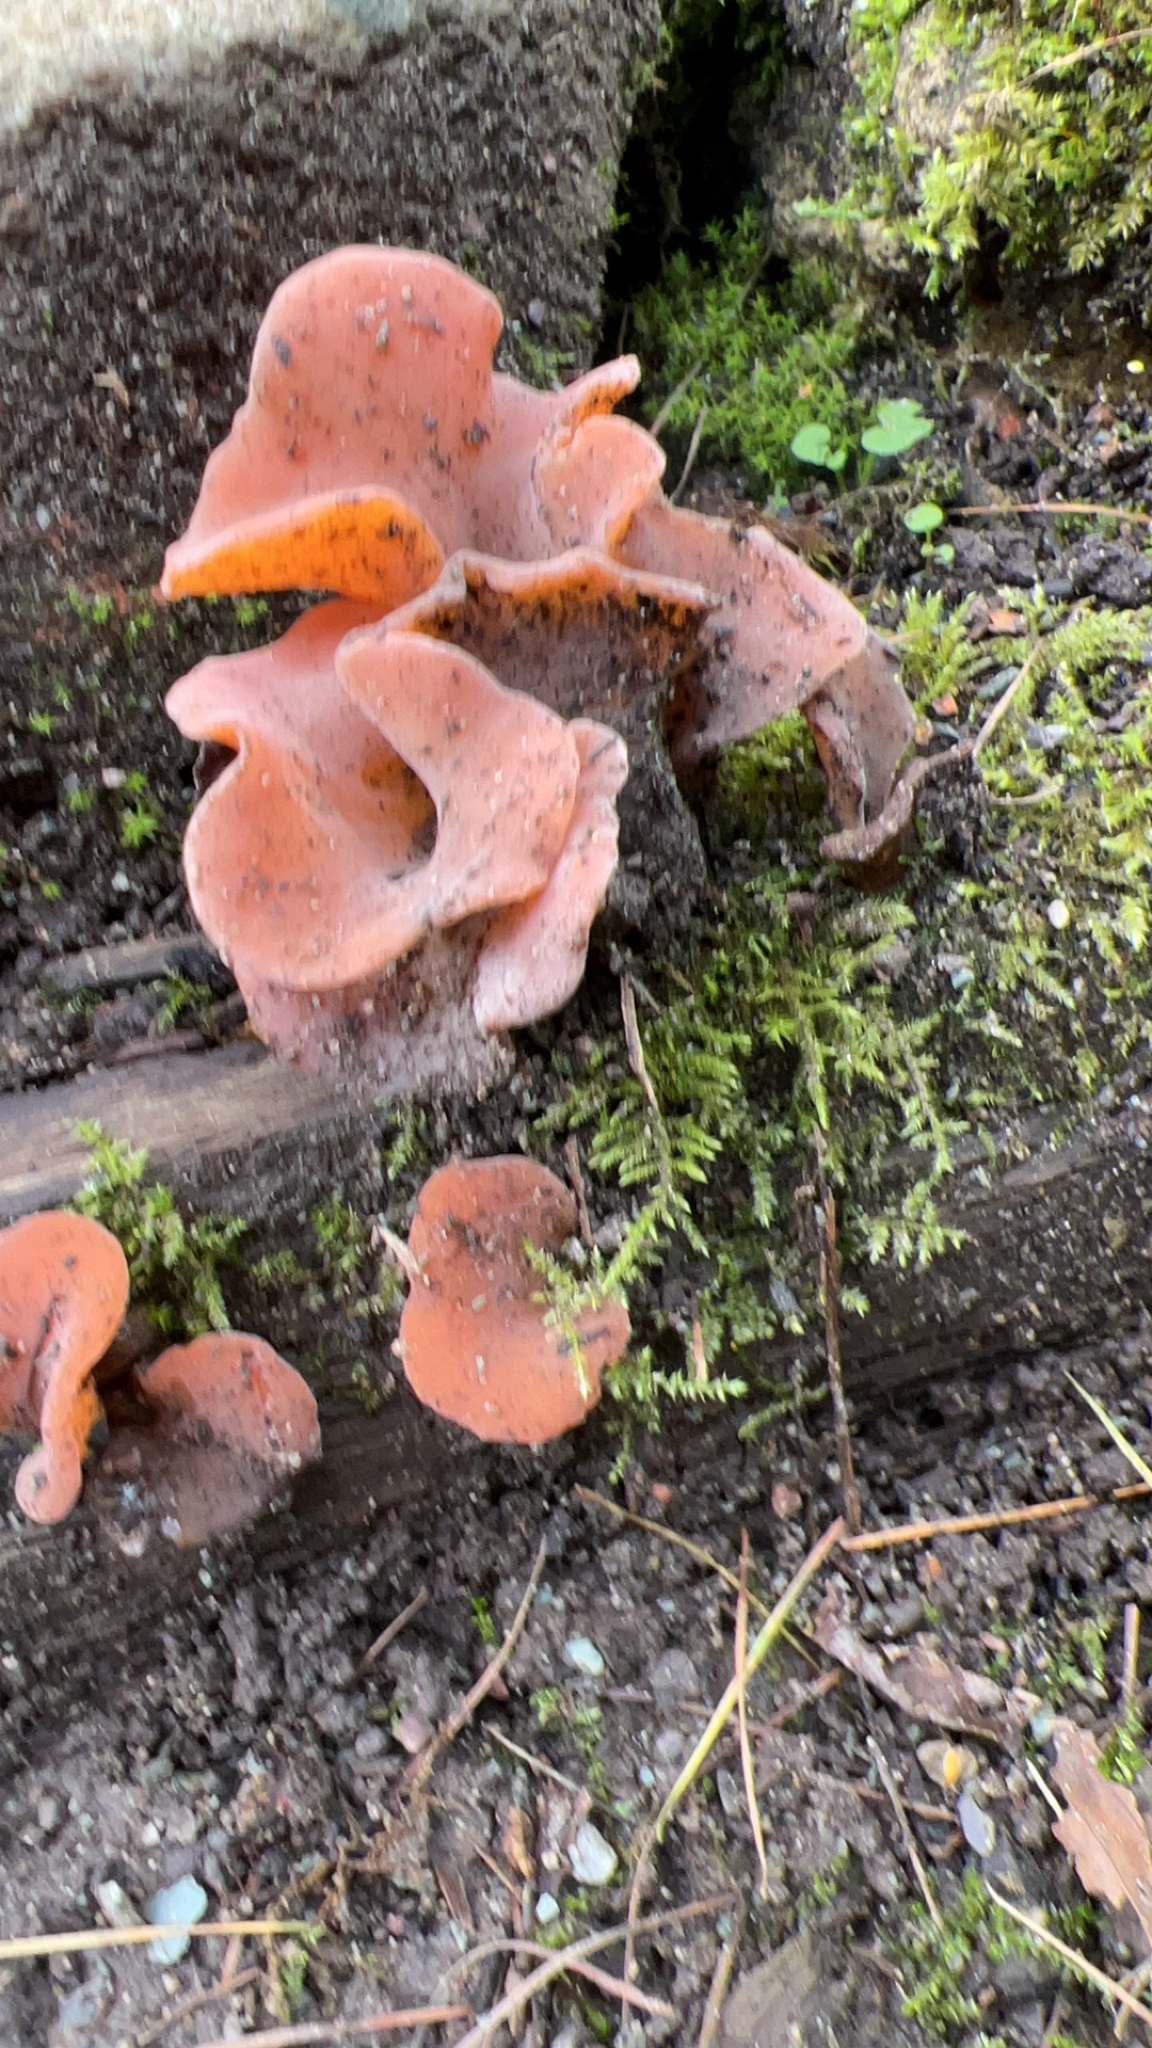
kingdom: Fungi
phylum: Basidiomycota
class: Agaricomycetes
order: Auriculariales
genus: Guepinia
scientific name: Guepinia helvelloides
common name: Salmon salad
